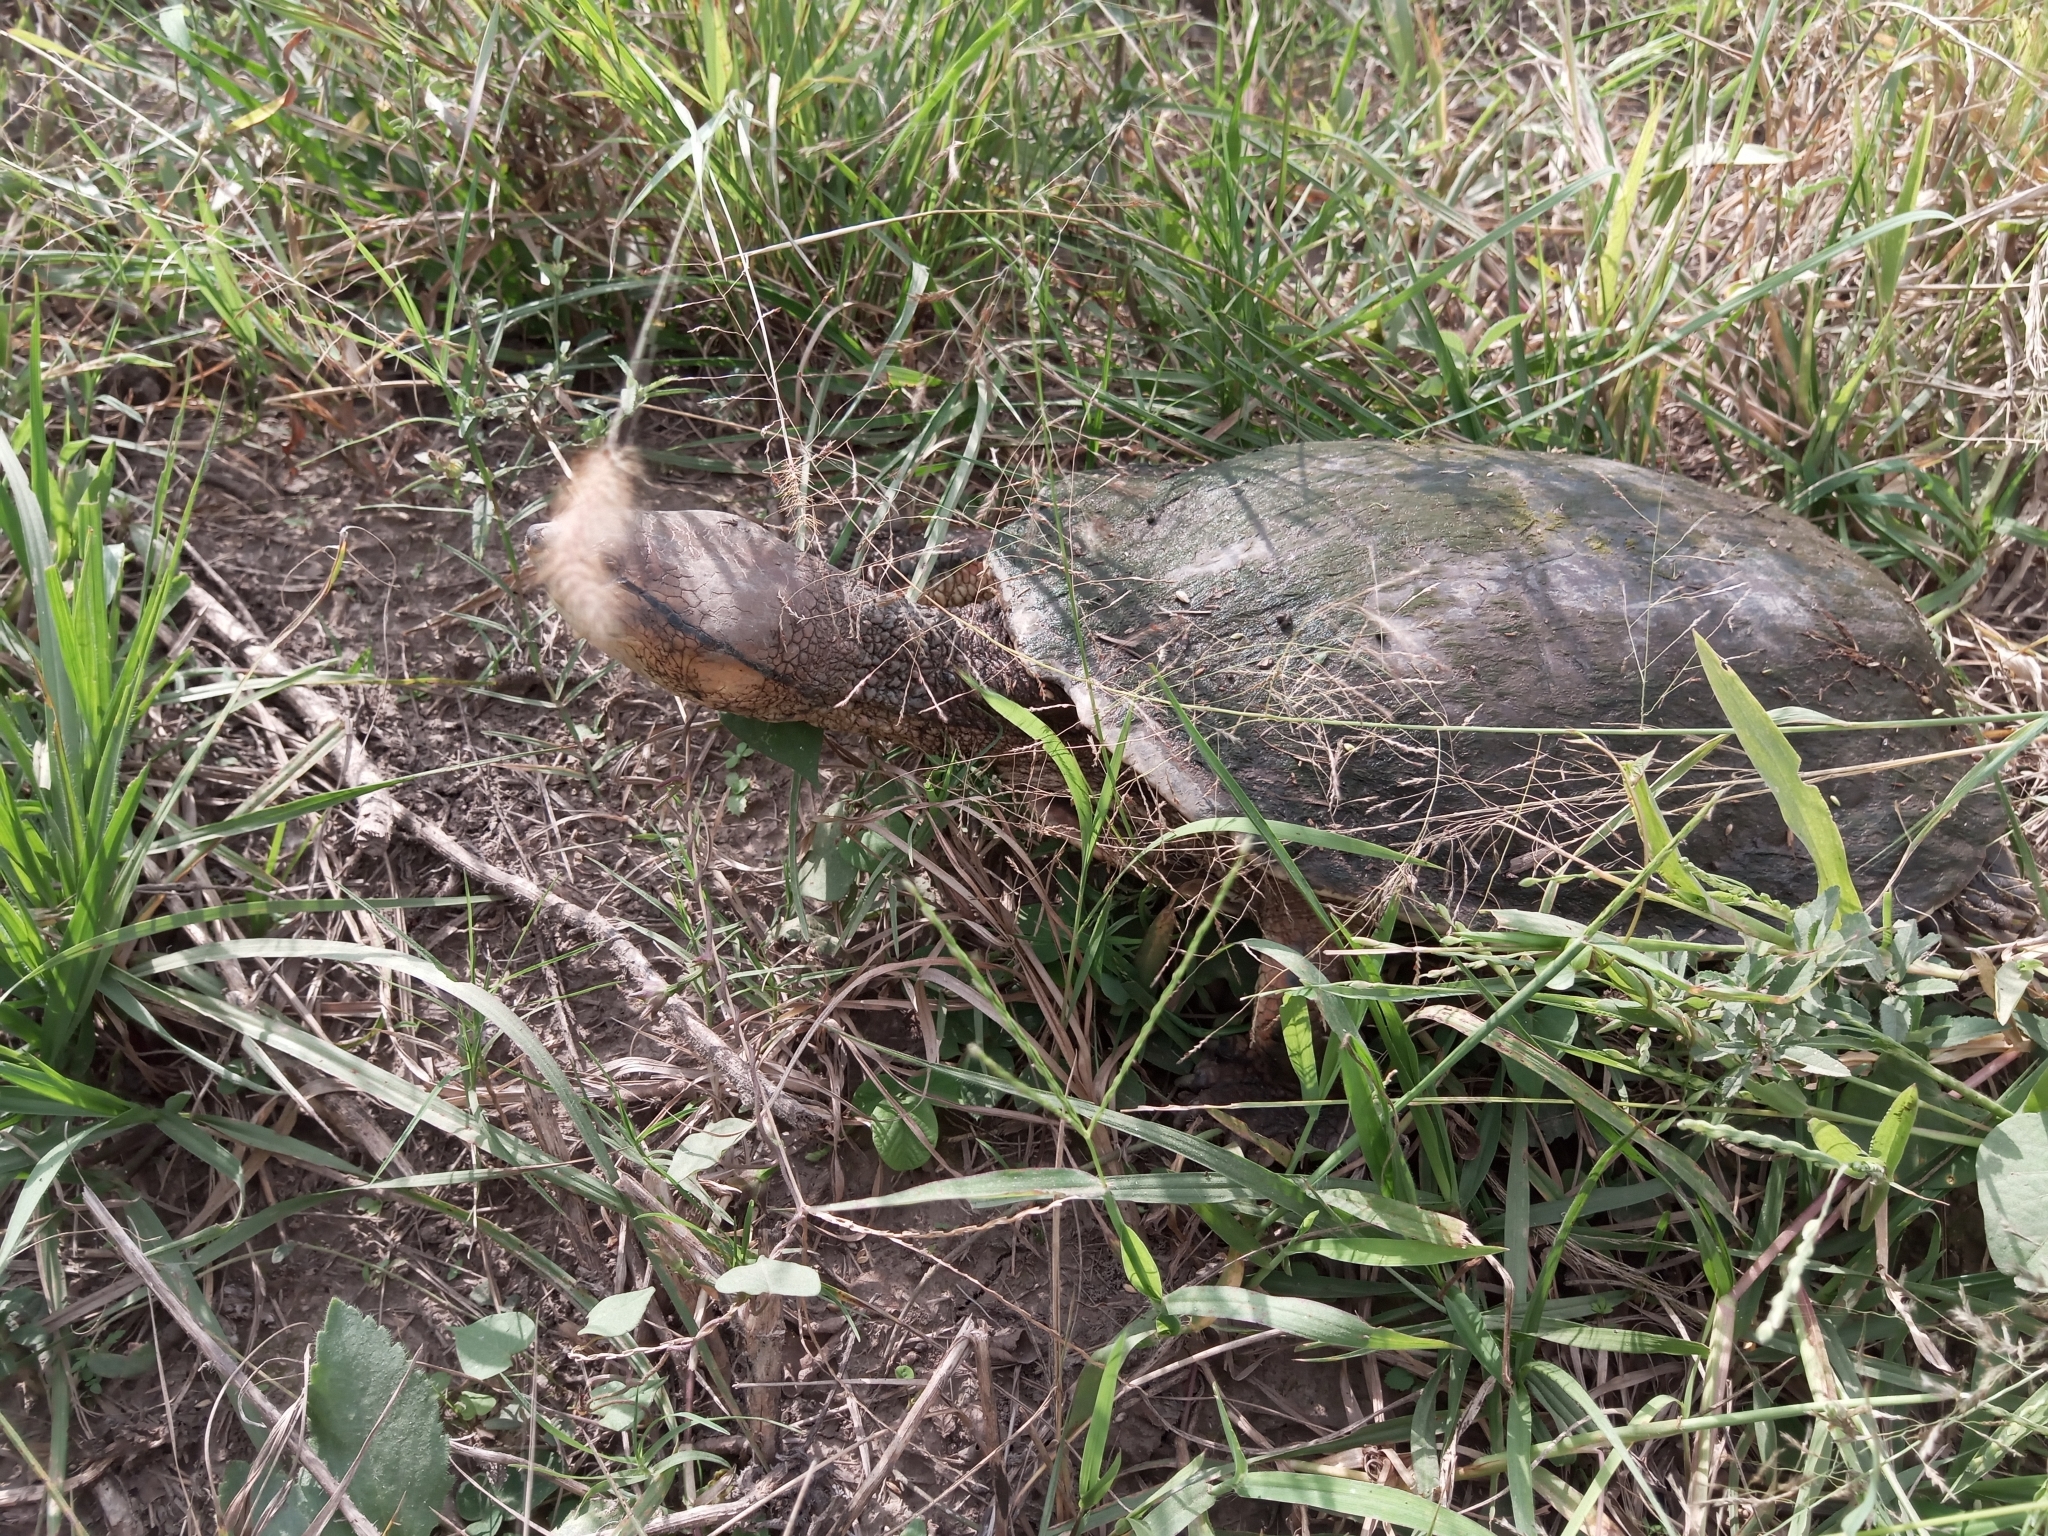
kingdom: Animalia
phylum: Chordata
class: Testudines
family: Chelidae
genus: Phrynops
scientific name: Phrynops hilarii
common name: Side-necked turtle of saint hillaire
